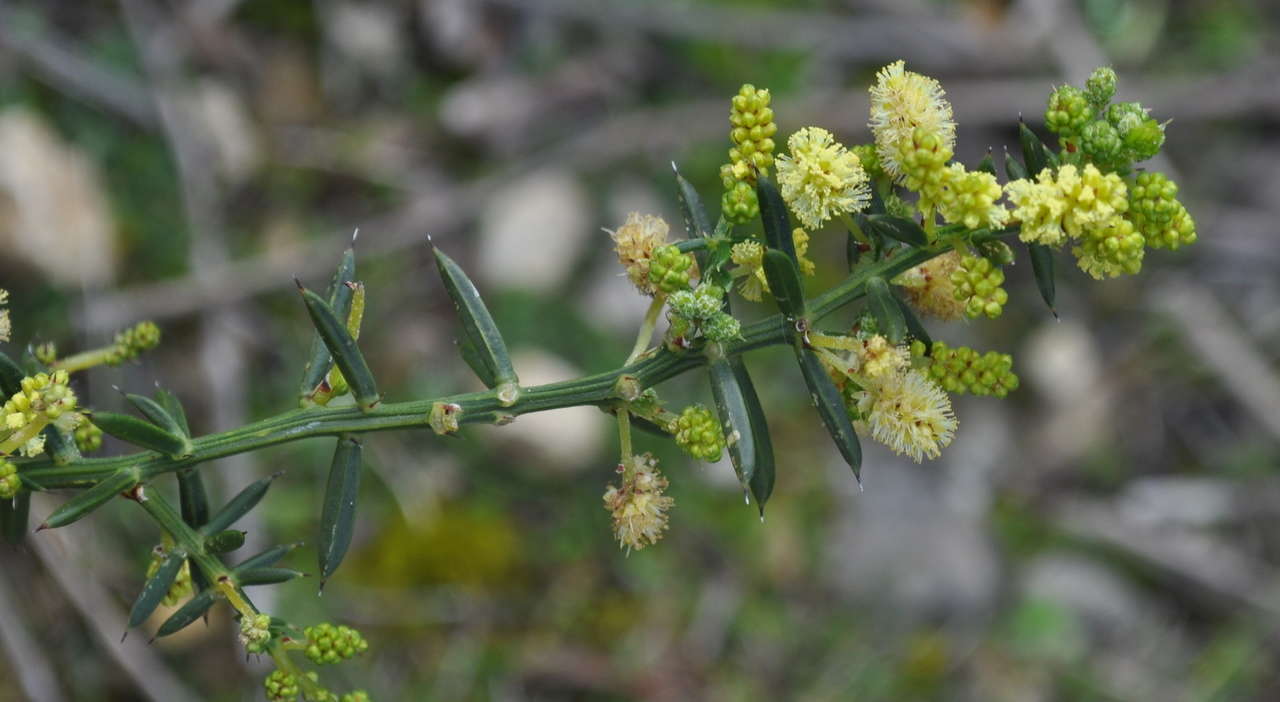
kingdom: Plantae
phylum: Tracheophyta
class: Magnoliopsida
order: Fabales
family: Fabaceae
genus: Acacia
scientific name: Acacia verticillata
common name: Prickly moses
